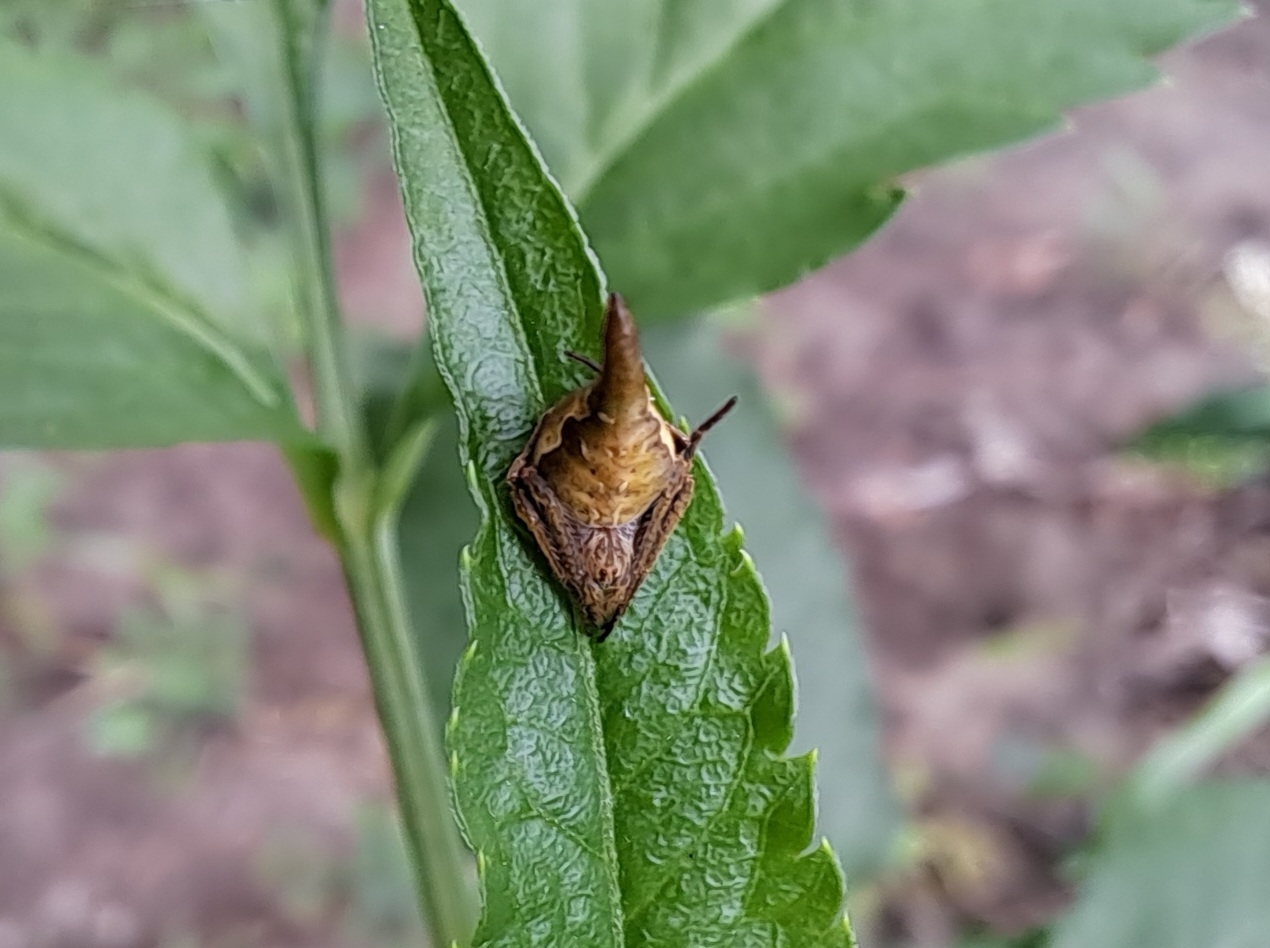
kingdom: Animalia
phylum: Arthropoda
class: Arachnida
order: Araneae
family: Araneidae
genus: Eriovixia
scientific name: Eriovixia pseudocentrodes
